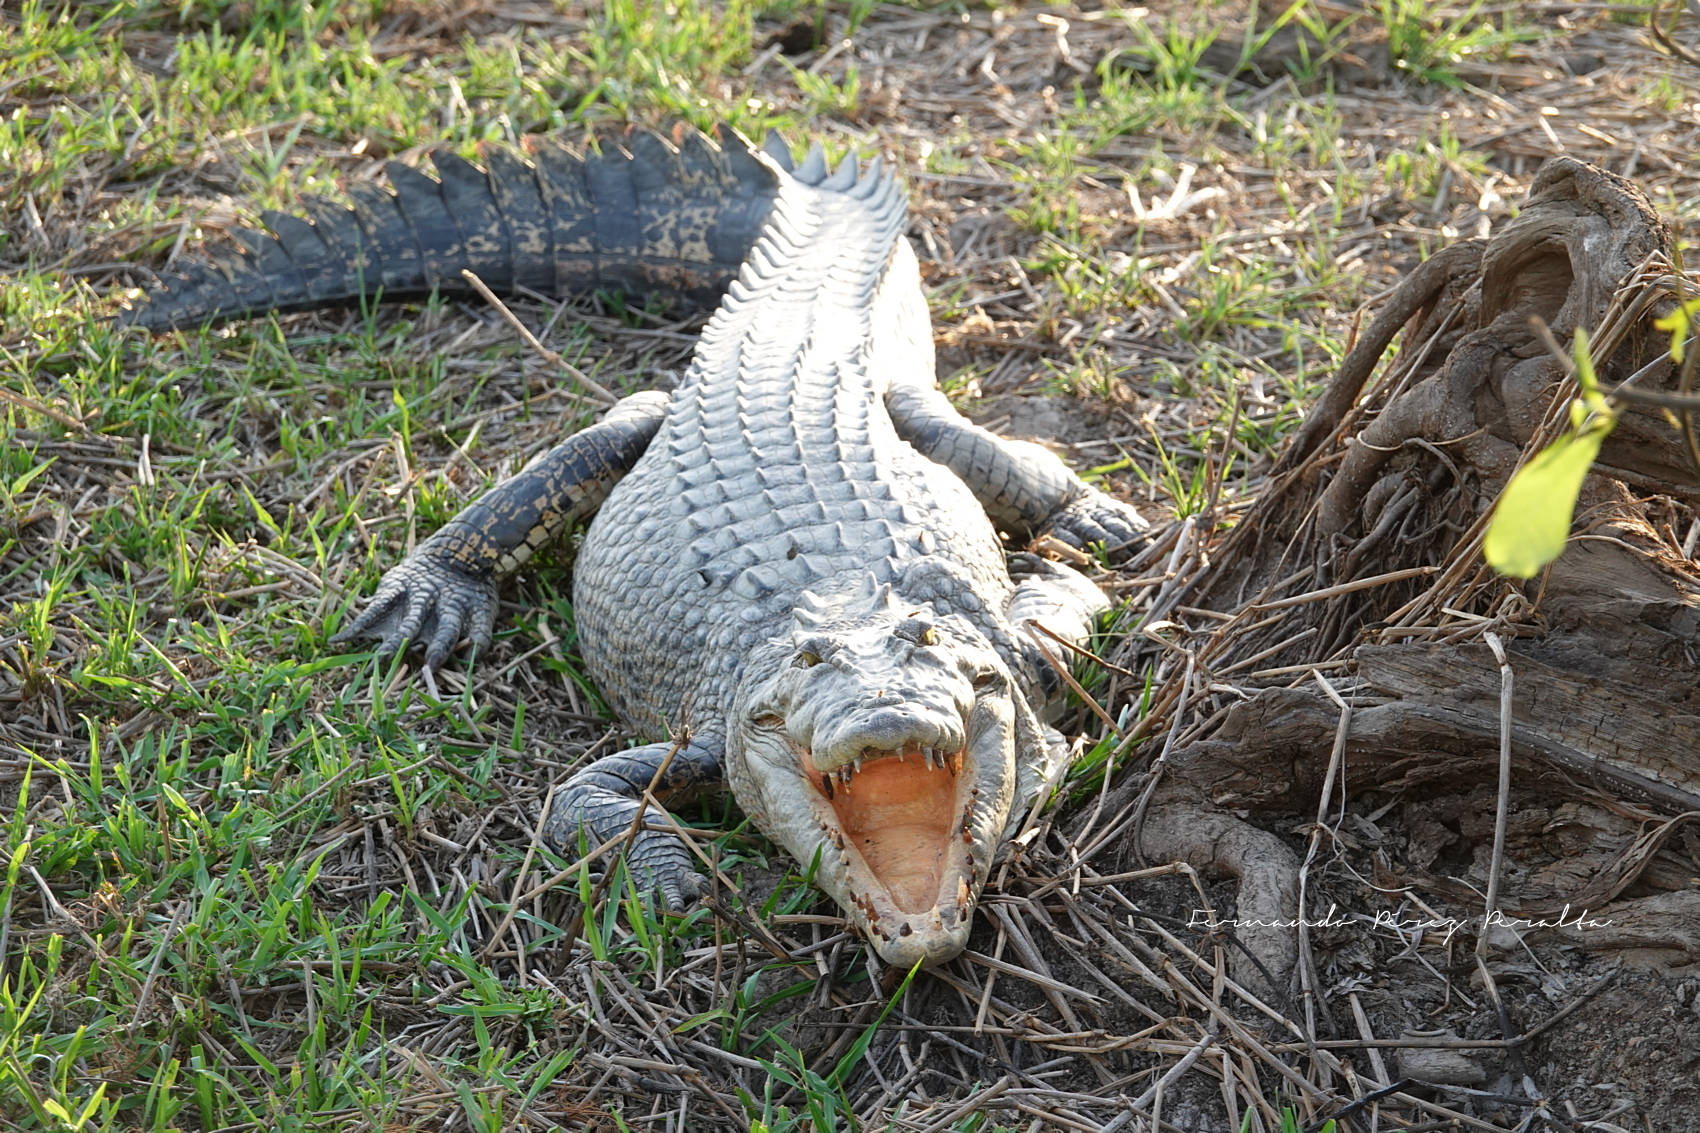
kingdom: Animalia
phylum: Chordata
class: Crocodylia
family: Crocodylidae
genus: Crocodylus
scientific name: Crocodylus porosus
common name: Saltwater crocodile
